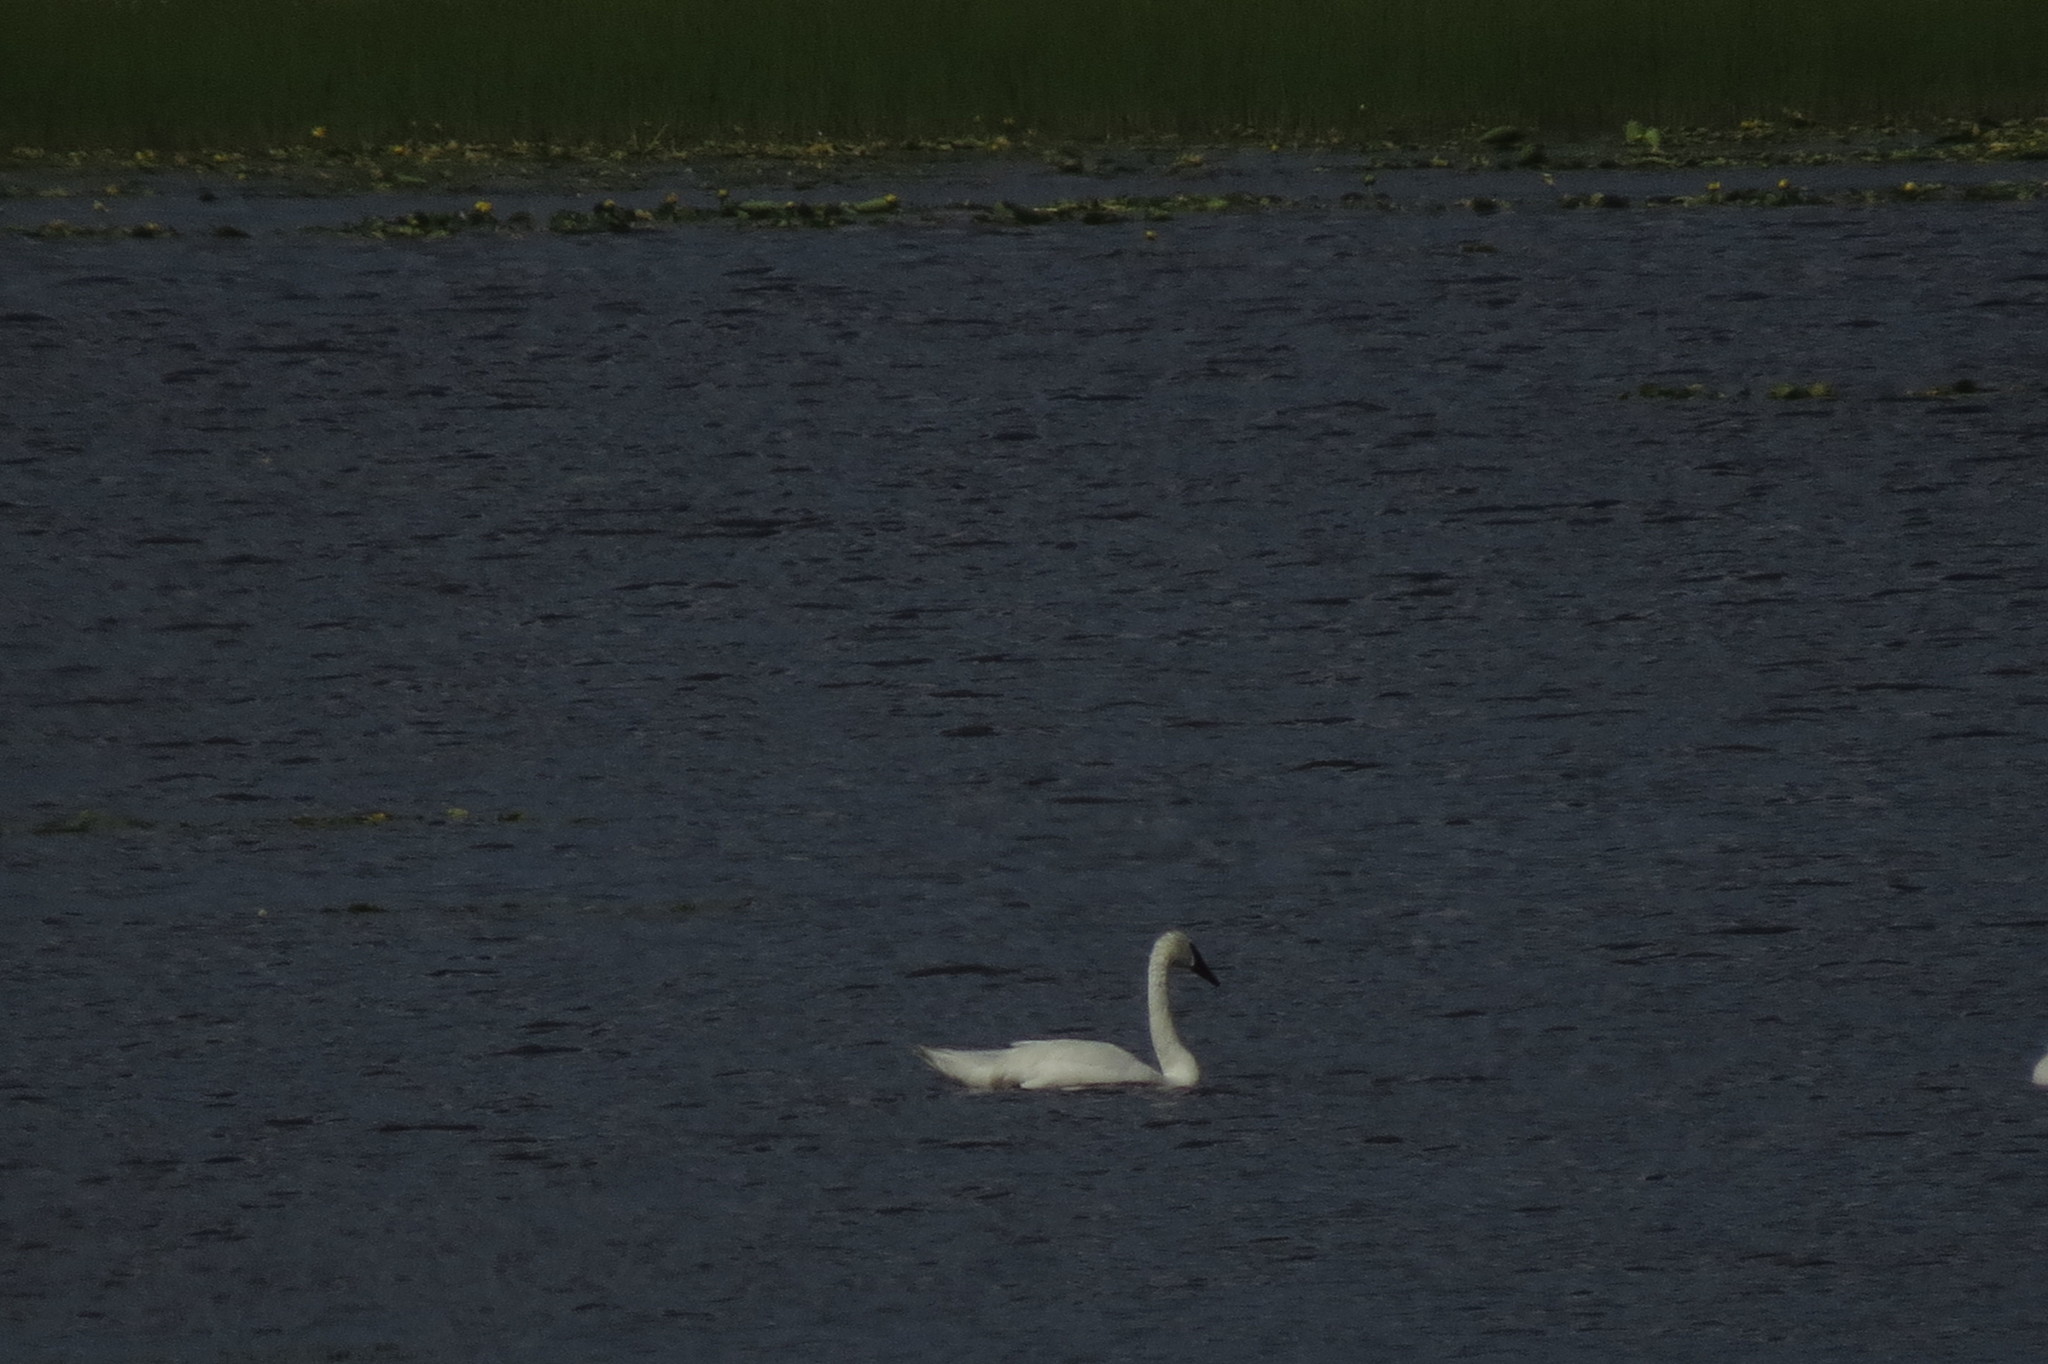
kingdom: Animalia
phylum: Chordata
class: Aves
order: Anseriformes
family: Anatidae
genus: Cygnus
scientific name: Cygnus buccinator
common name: Trumpeter swan
